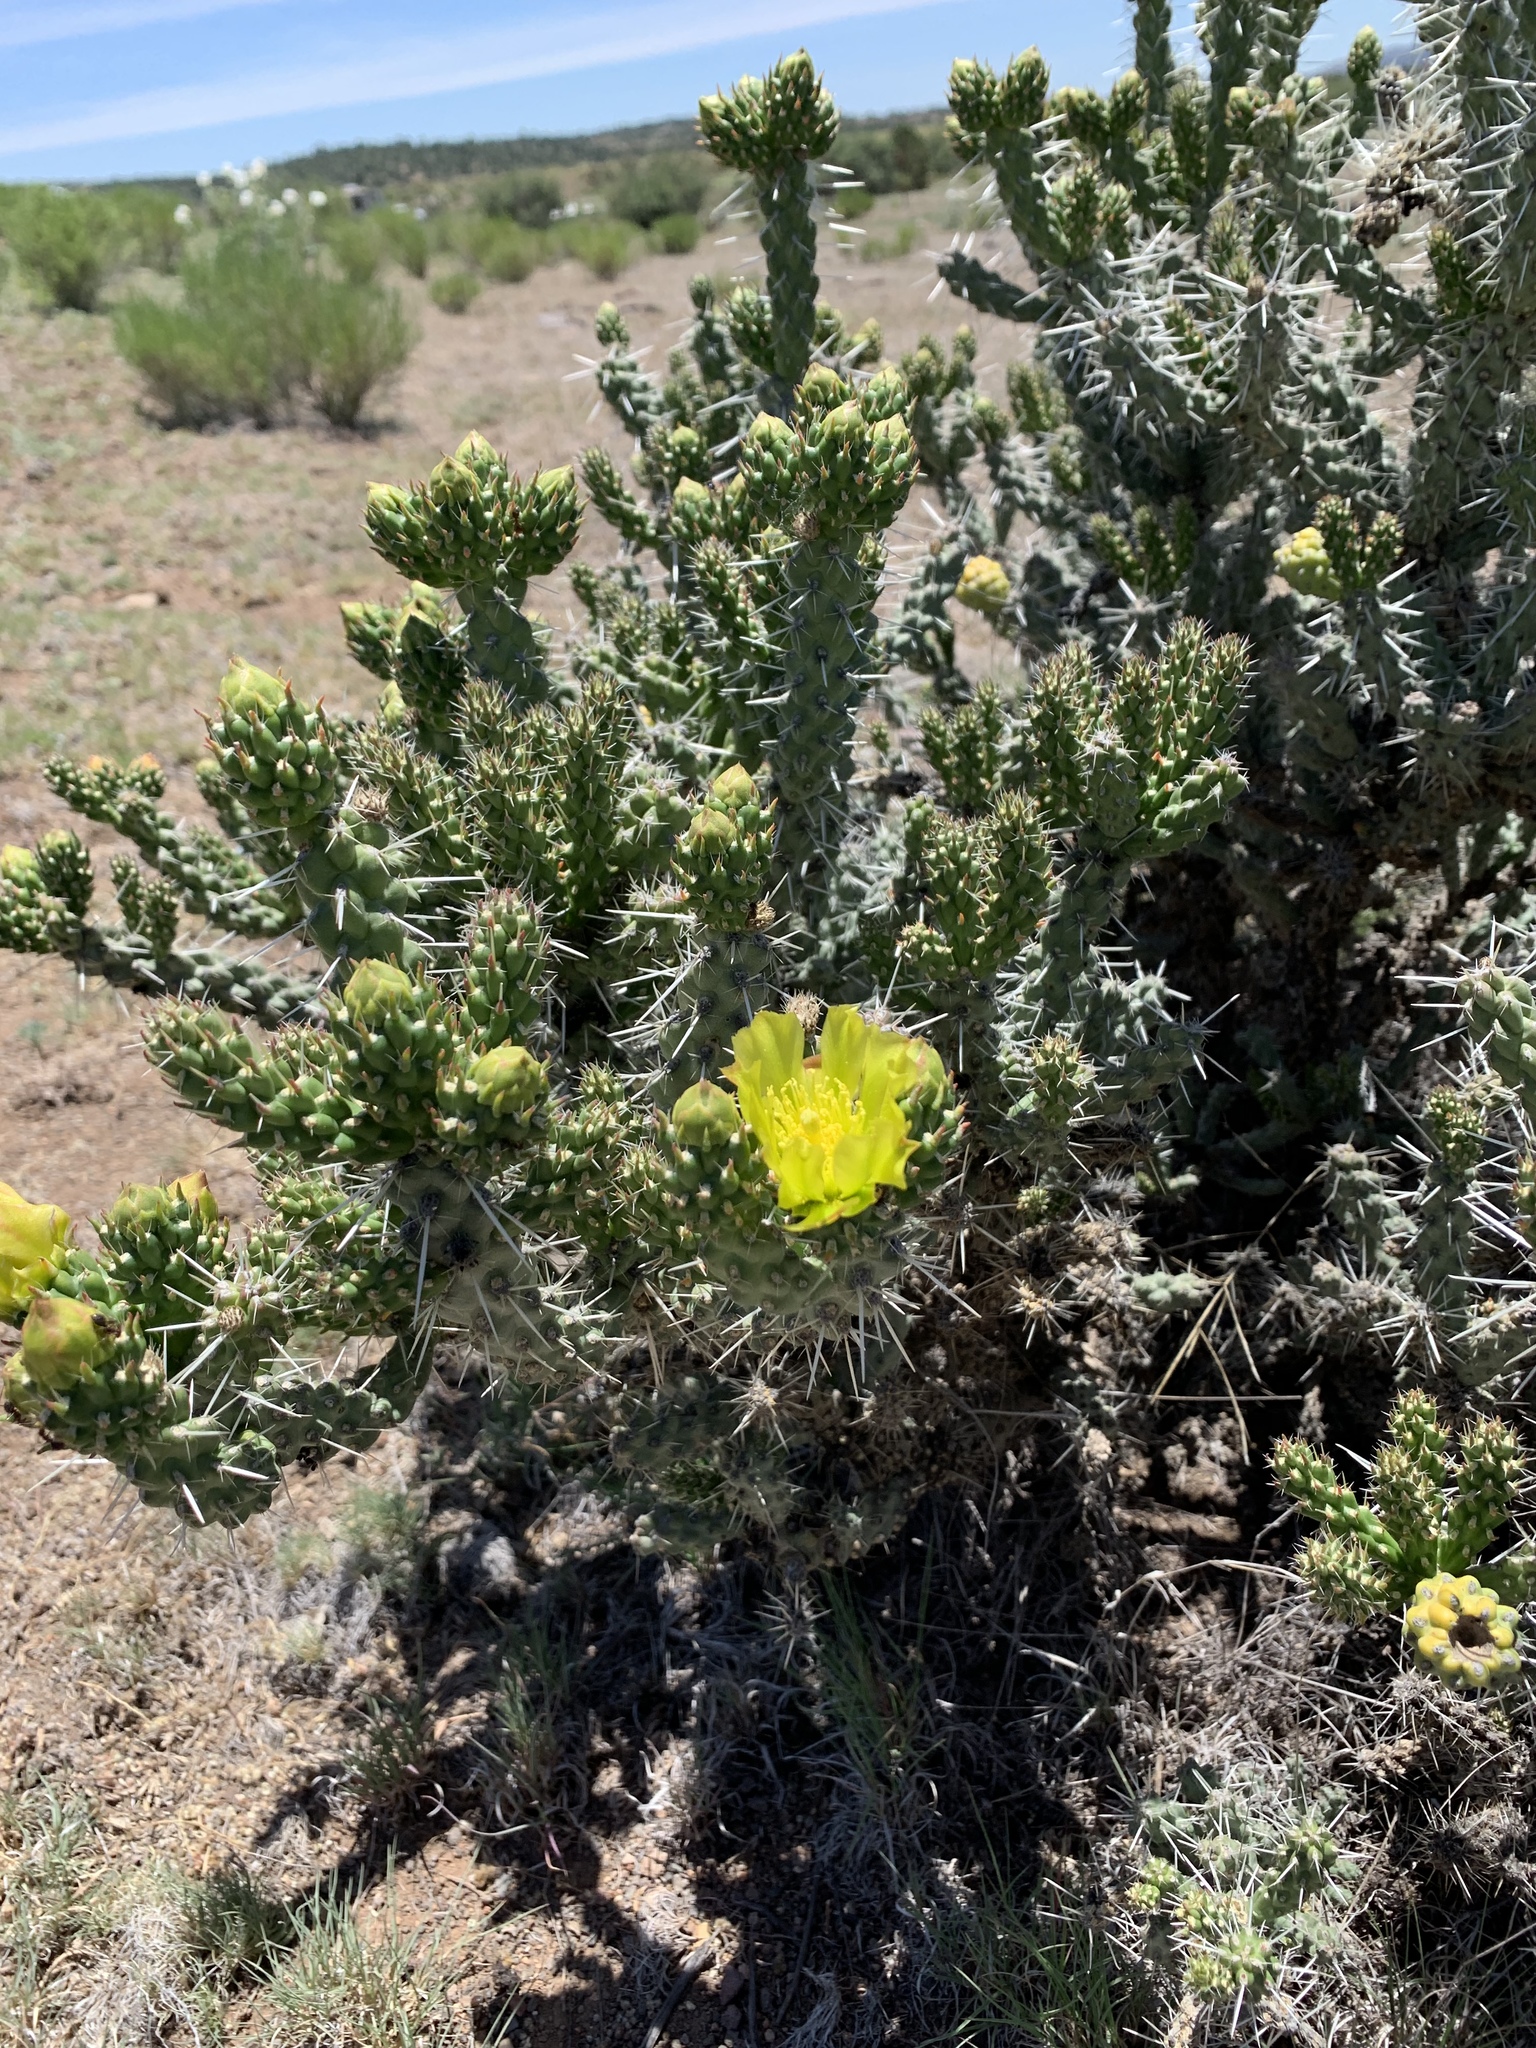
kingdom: Plantae
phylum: Tracheophyta
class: Magnoliopsida
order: Caryophyllales
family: Cactaceae
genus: Cylindropuntia
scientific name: Cylindropuntia whipplei
